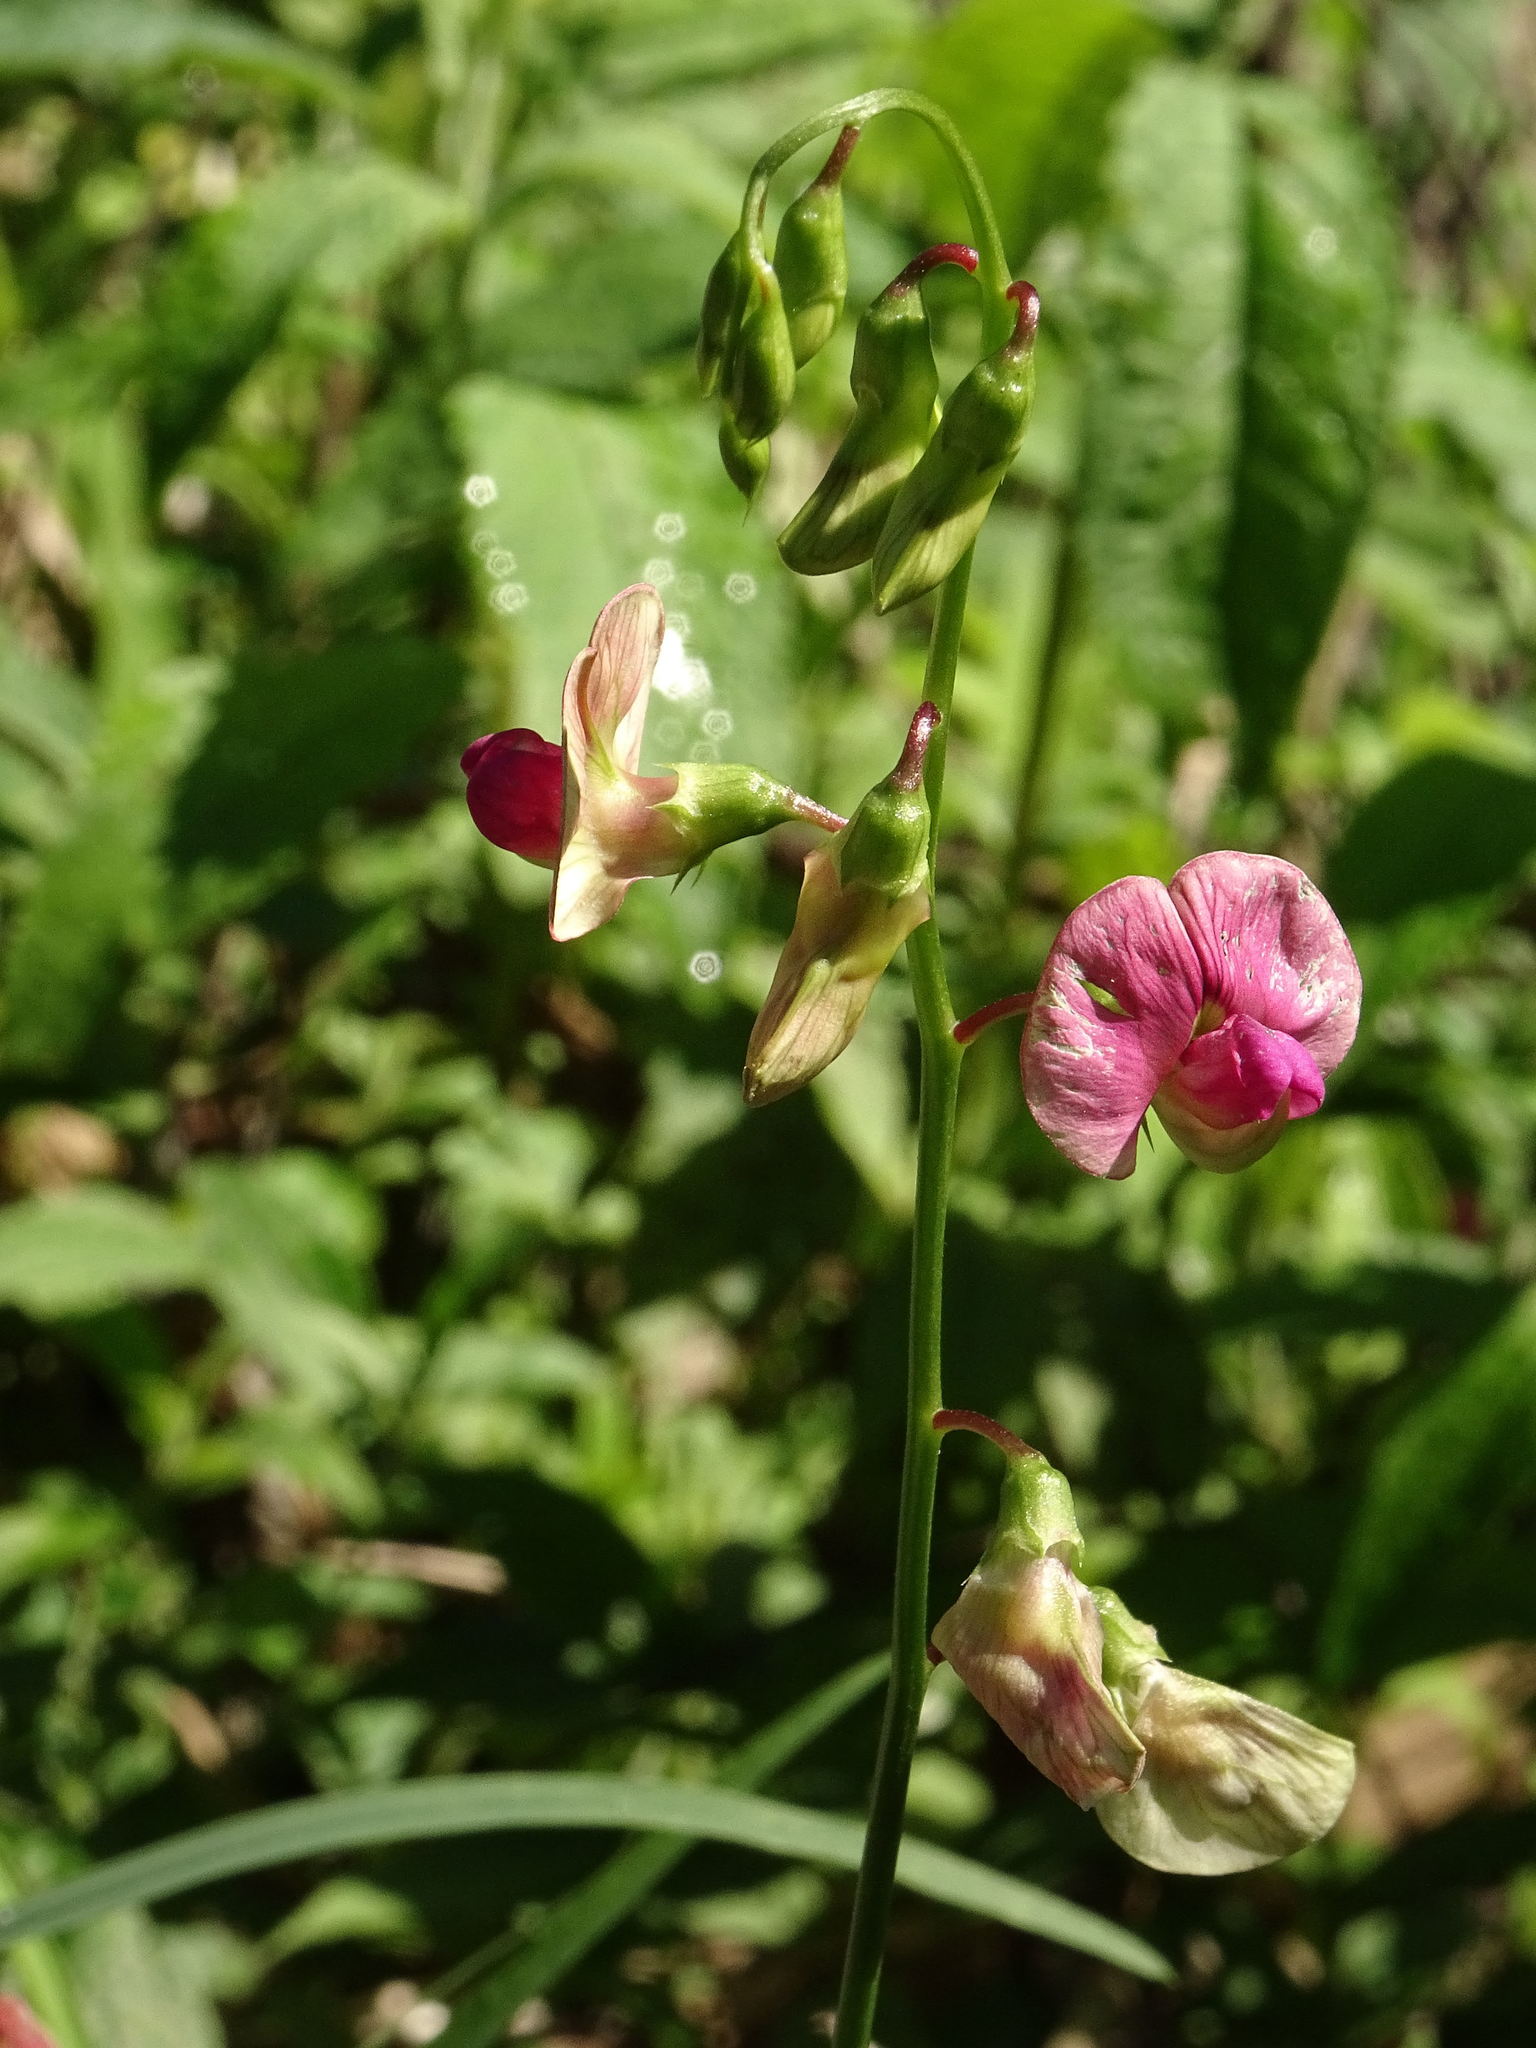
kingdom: Plantae
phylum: Tracheophyta
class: Magnoliopsida
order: Fabales
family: Fabaceae
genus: Lathyrus
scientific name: Lathyrus sylvestris
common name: Flat pea
